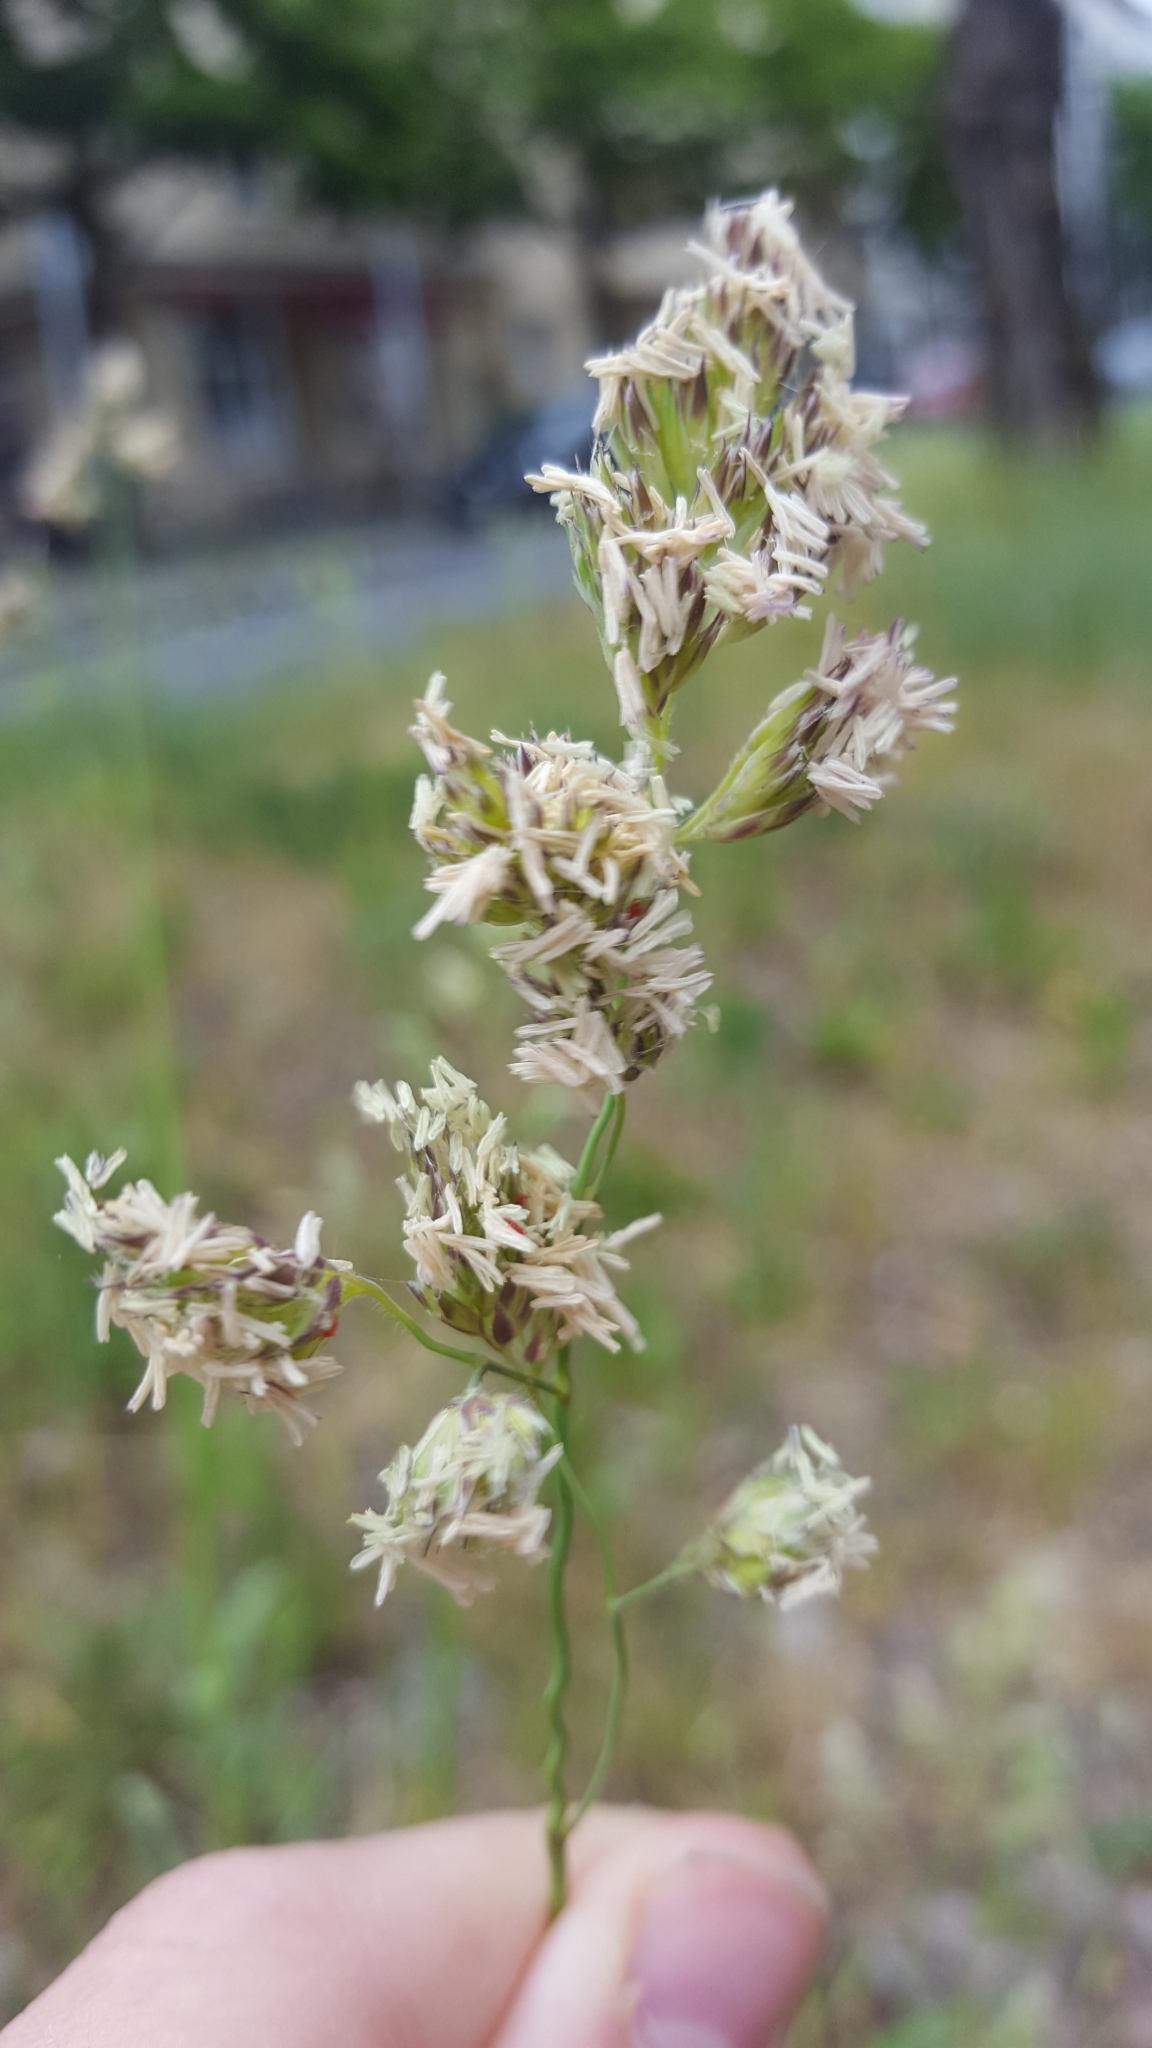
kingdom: Plantae
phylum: Tracheophyta
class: Liliopsida
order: Poales
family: Poaceae
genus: Dactylis
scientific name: Dactylis glomerata
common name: Orchardgrass
